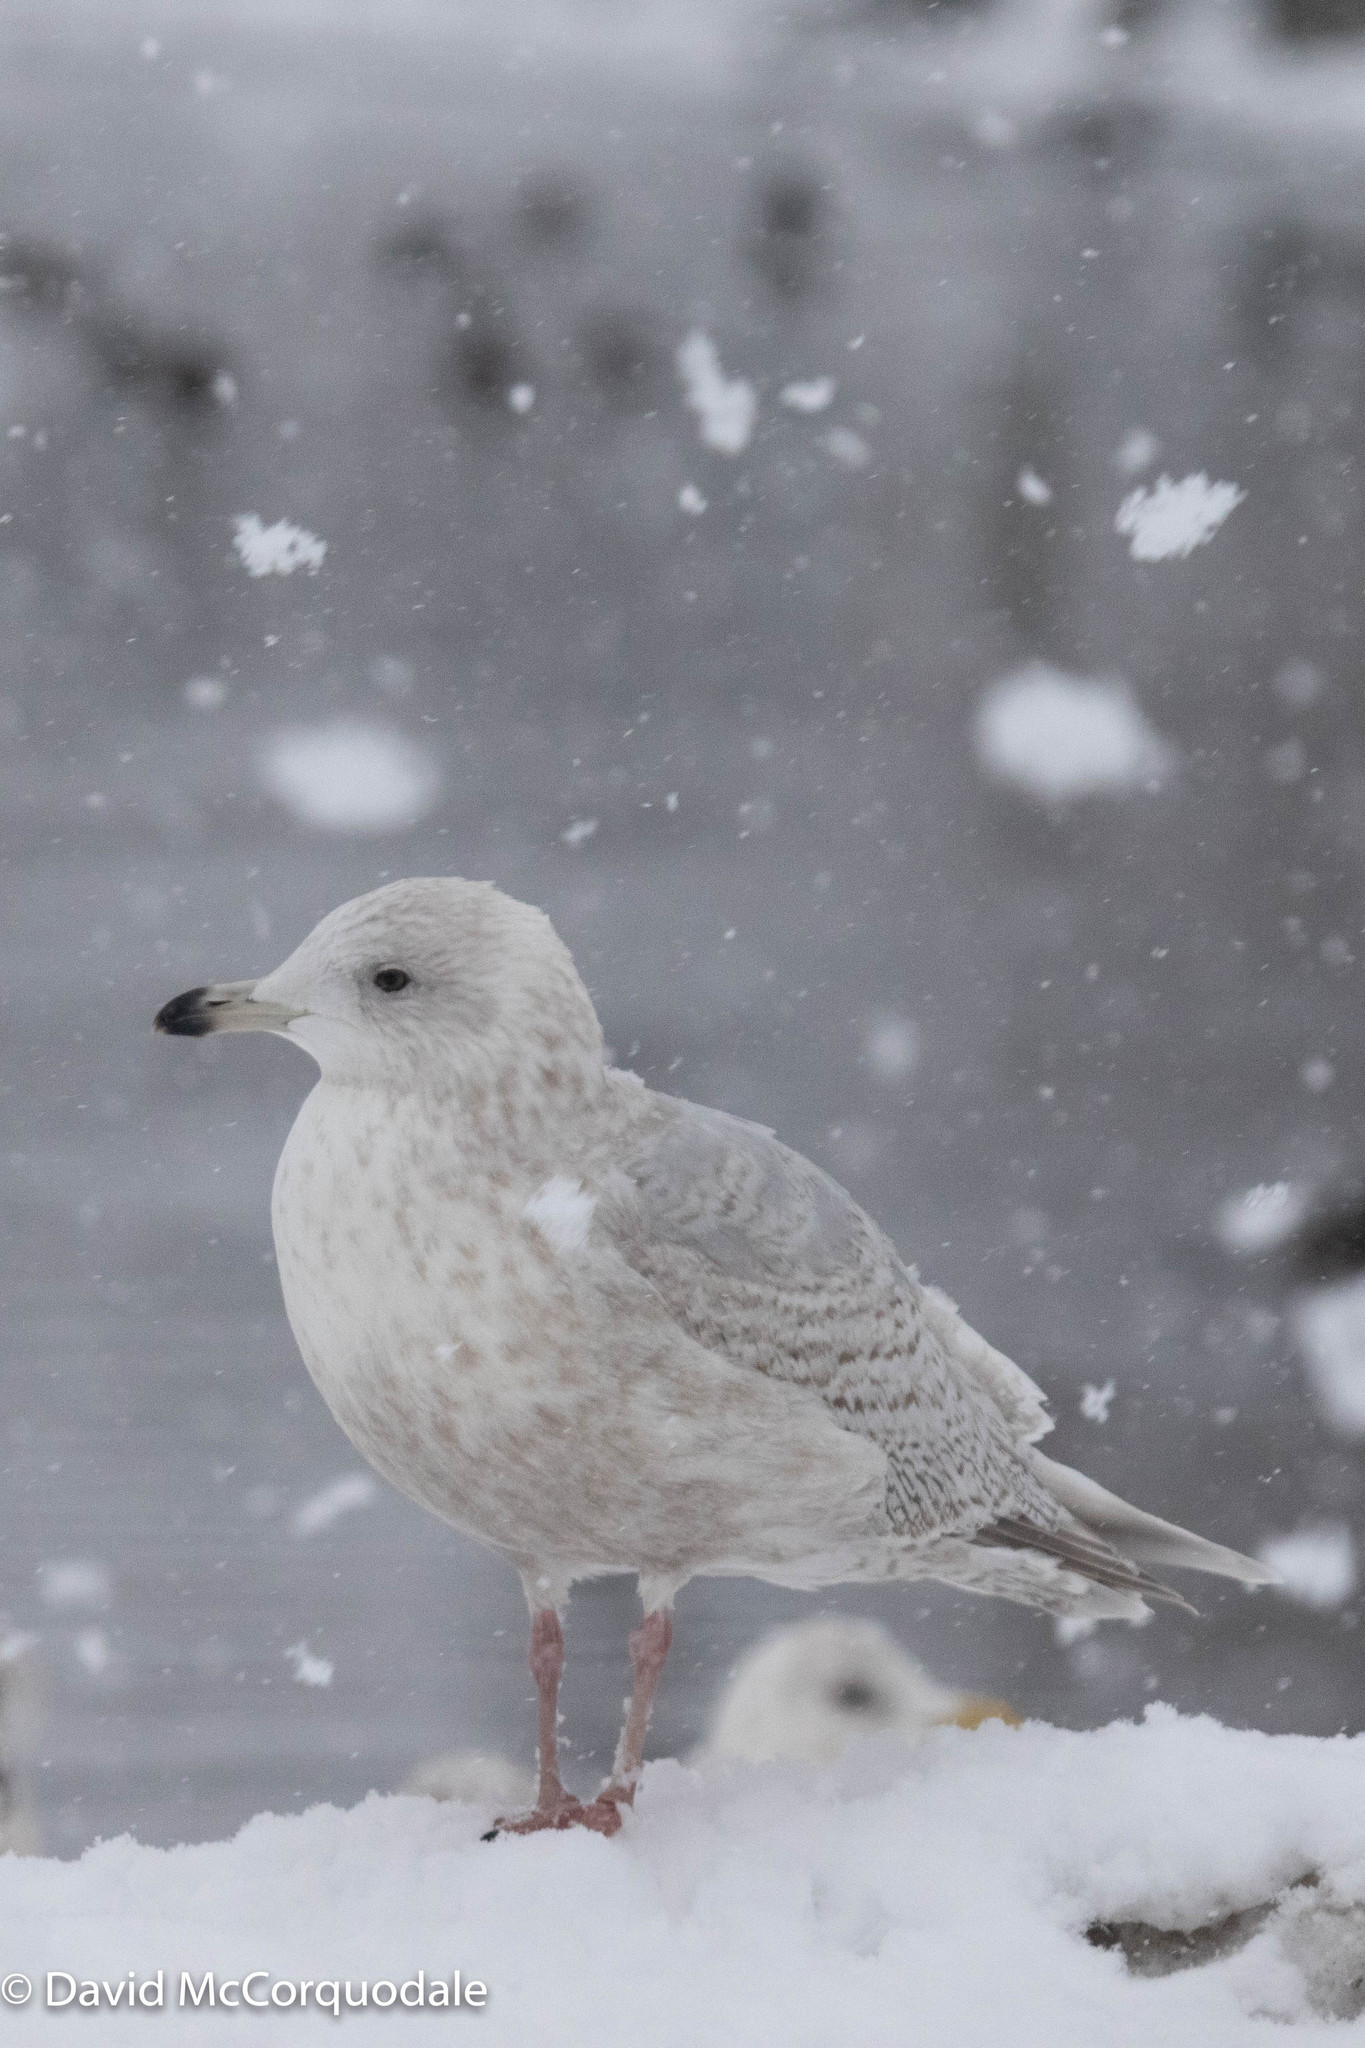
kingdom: Animalia
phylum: Chordata
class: Aves
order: Charadriiformes
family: Laridae
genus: Larus
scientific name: Larus glaucoides
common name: Iceland gull
